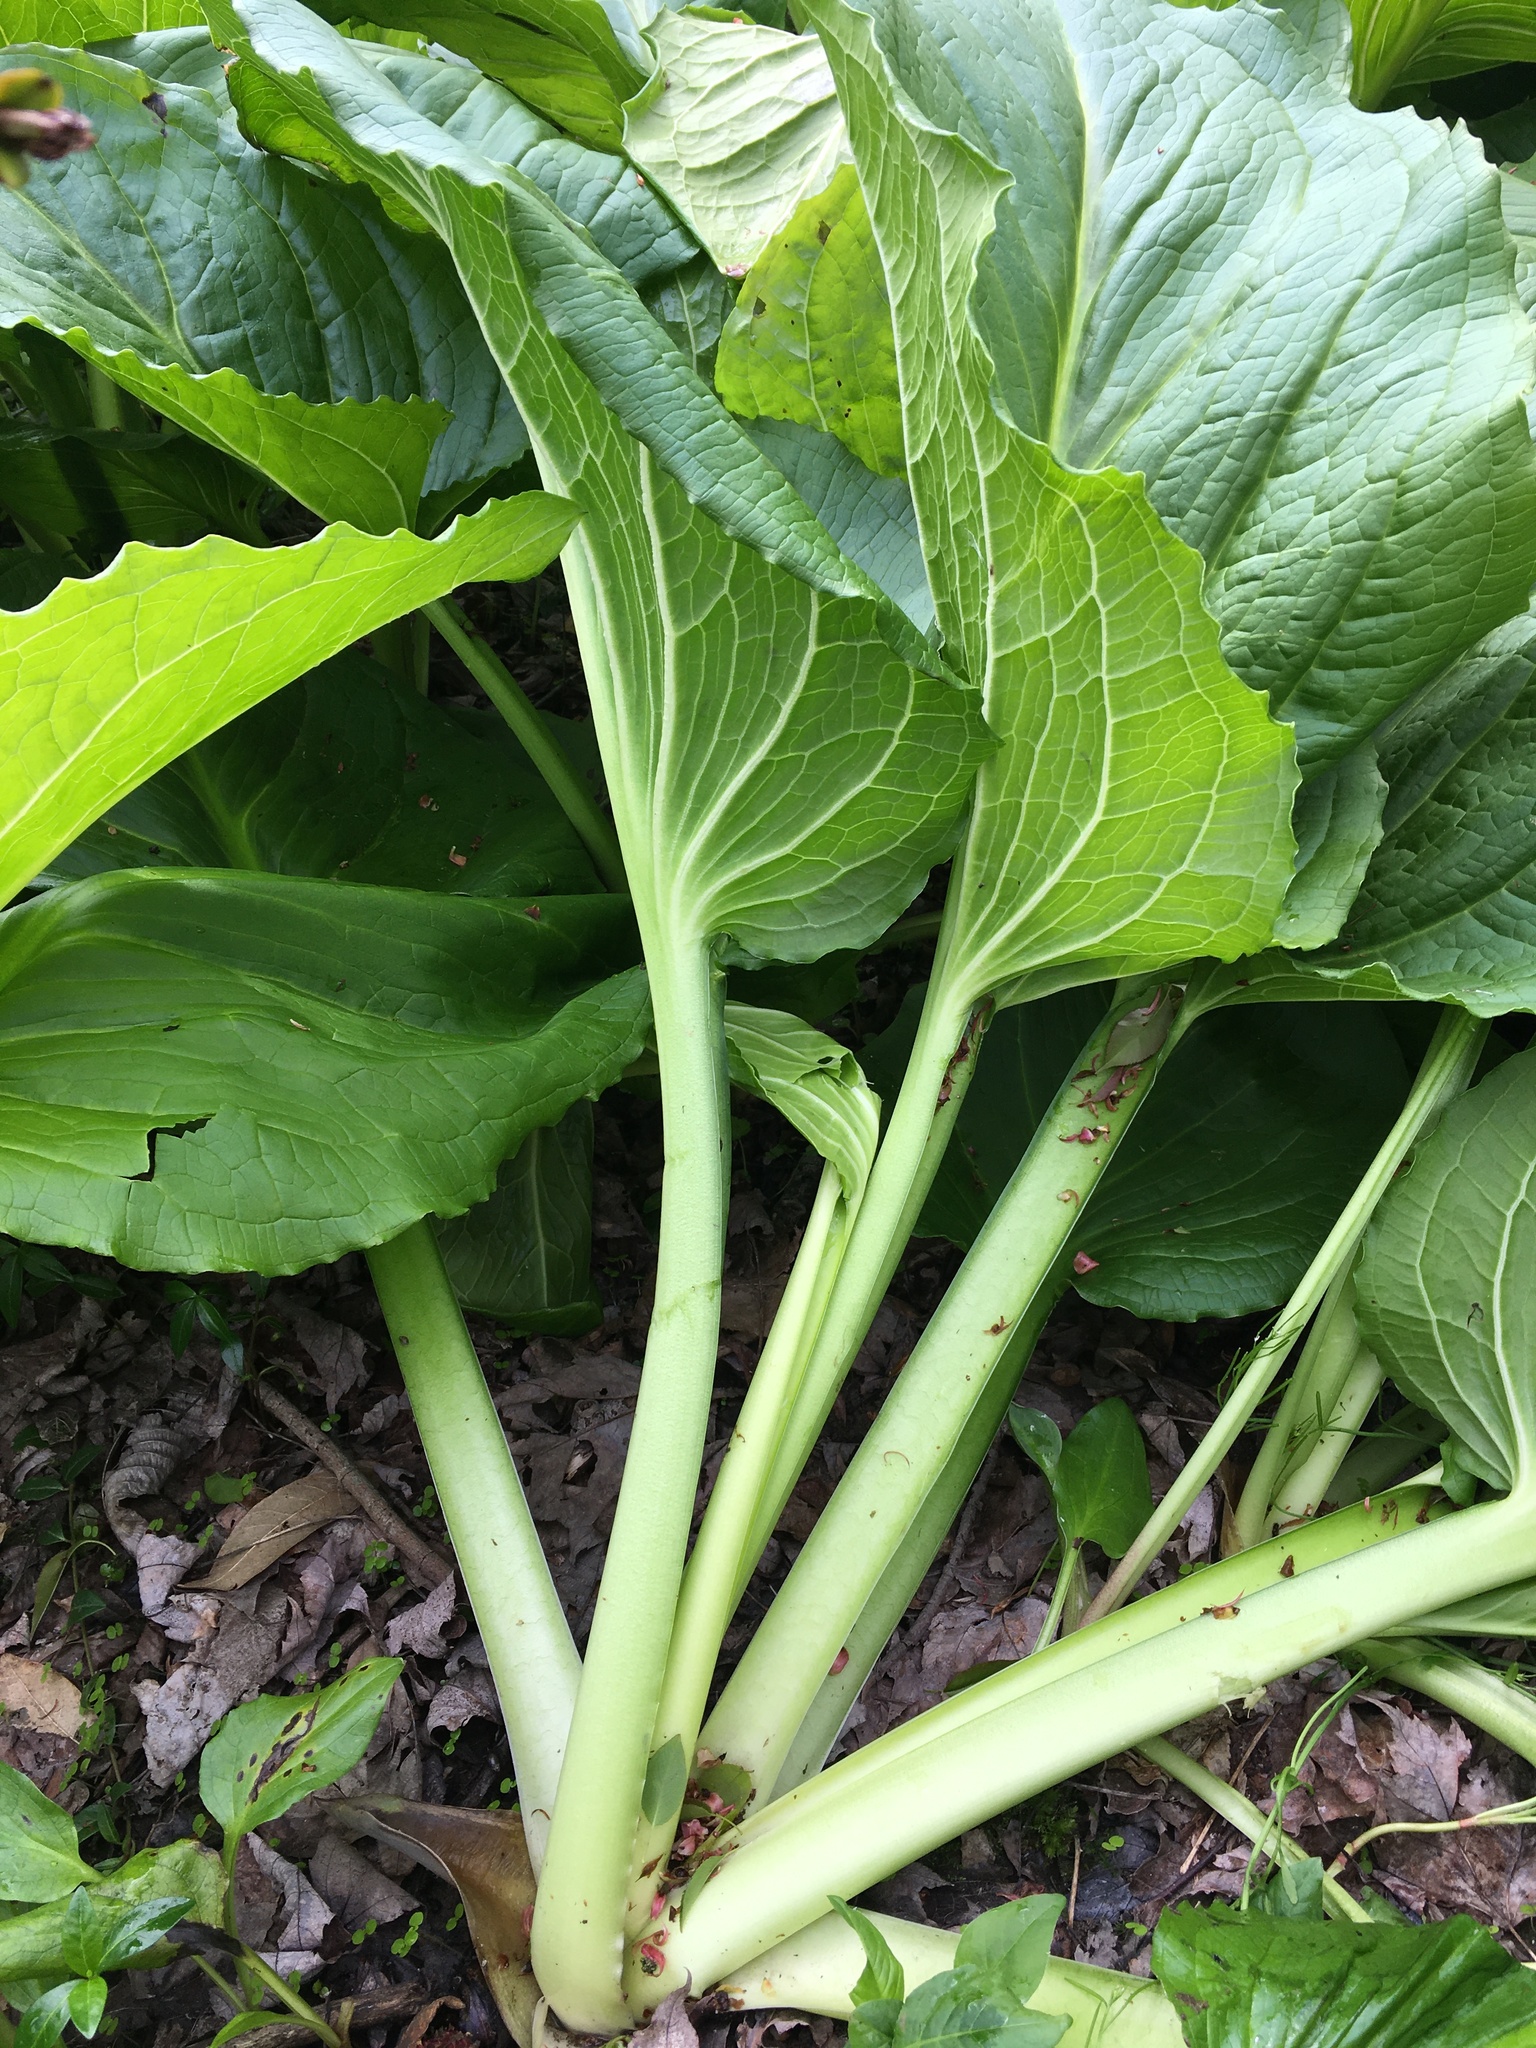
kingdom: Plantae
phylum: Tracheophyta
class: Liliopsida
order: Alismatales
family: Araceae
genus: Symplocarpus
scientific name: Symplocarpus foetidus
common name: Eastern skunk cabbage
